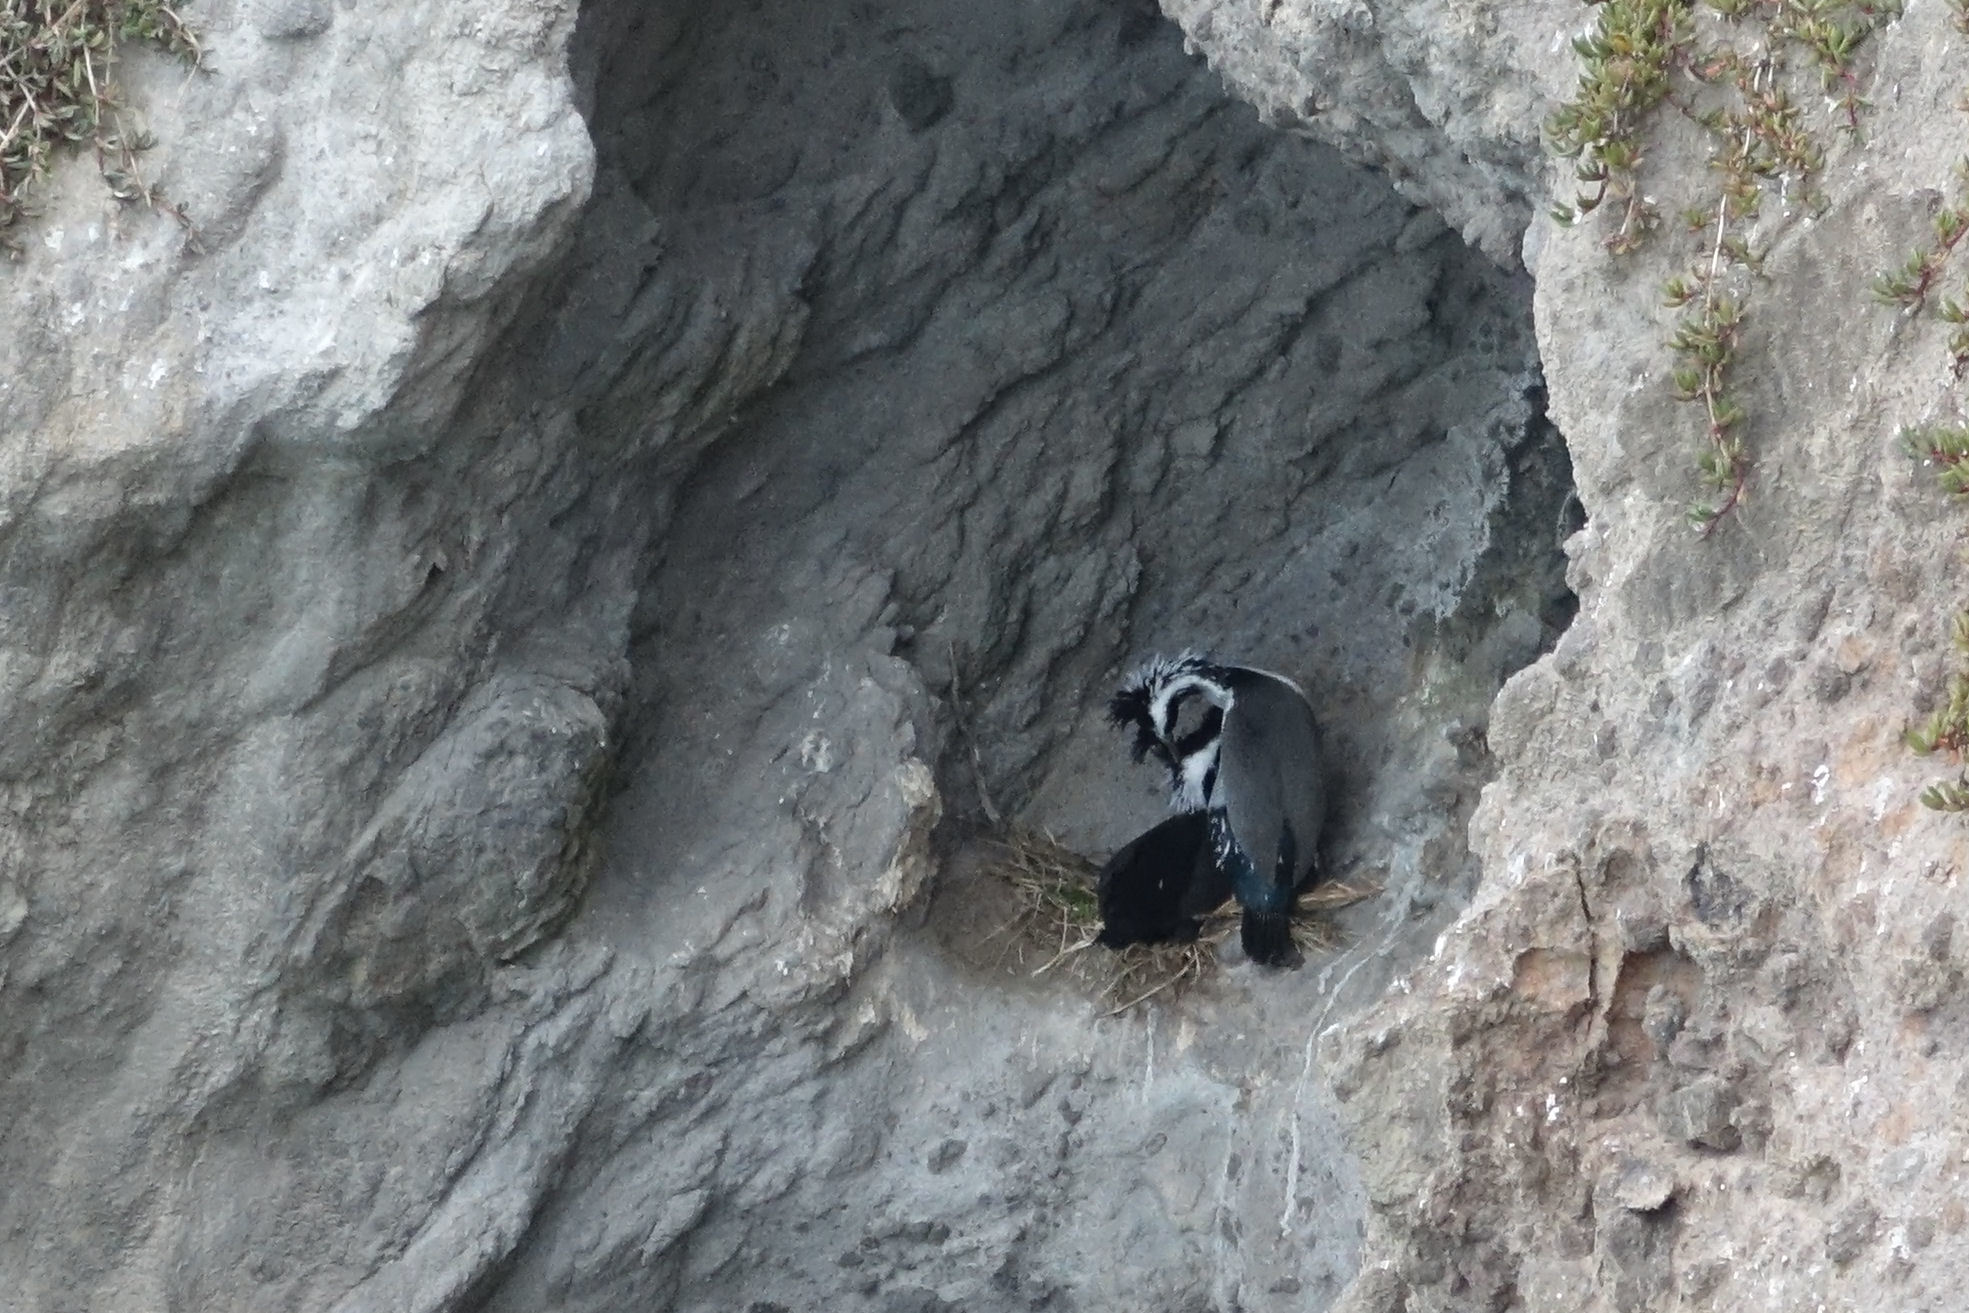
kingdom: Animalia
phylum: Chordata
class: Aves
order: Suliformes
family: Phalacrocoracidae
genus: Phalacrocorax
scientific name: Phalacrocorax punctatus
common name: Spotted shag
